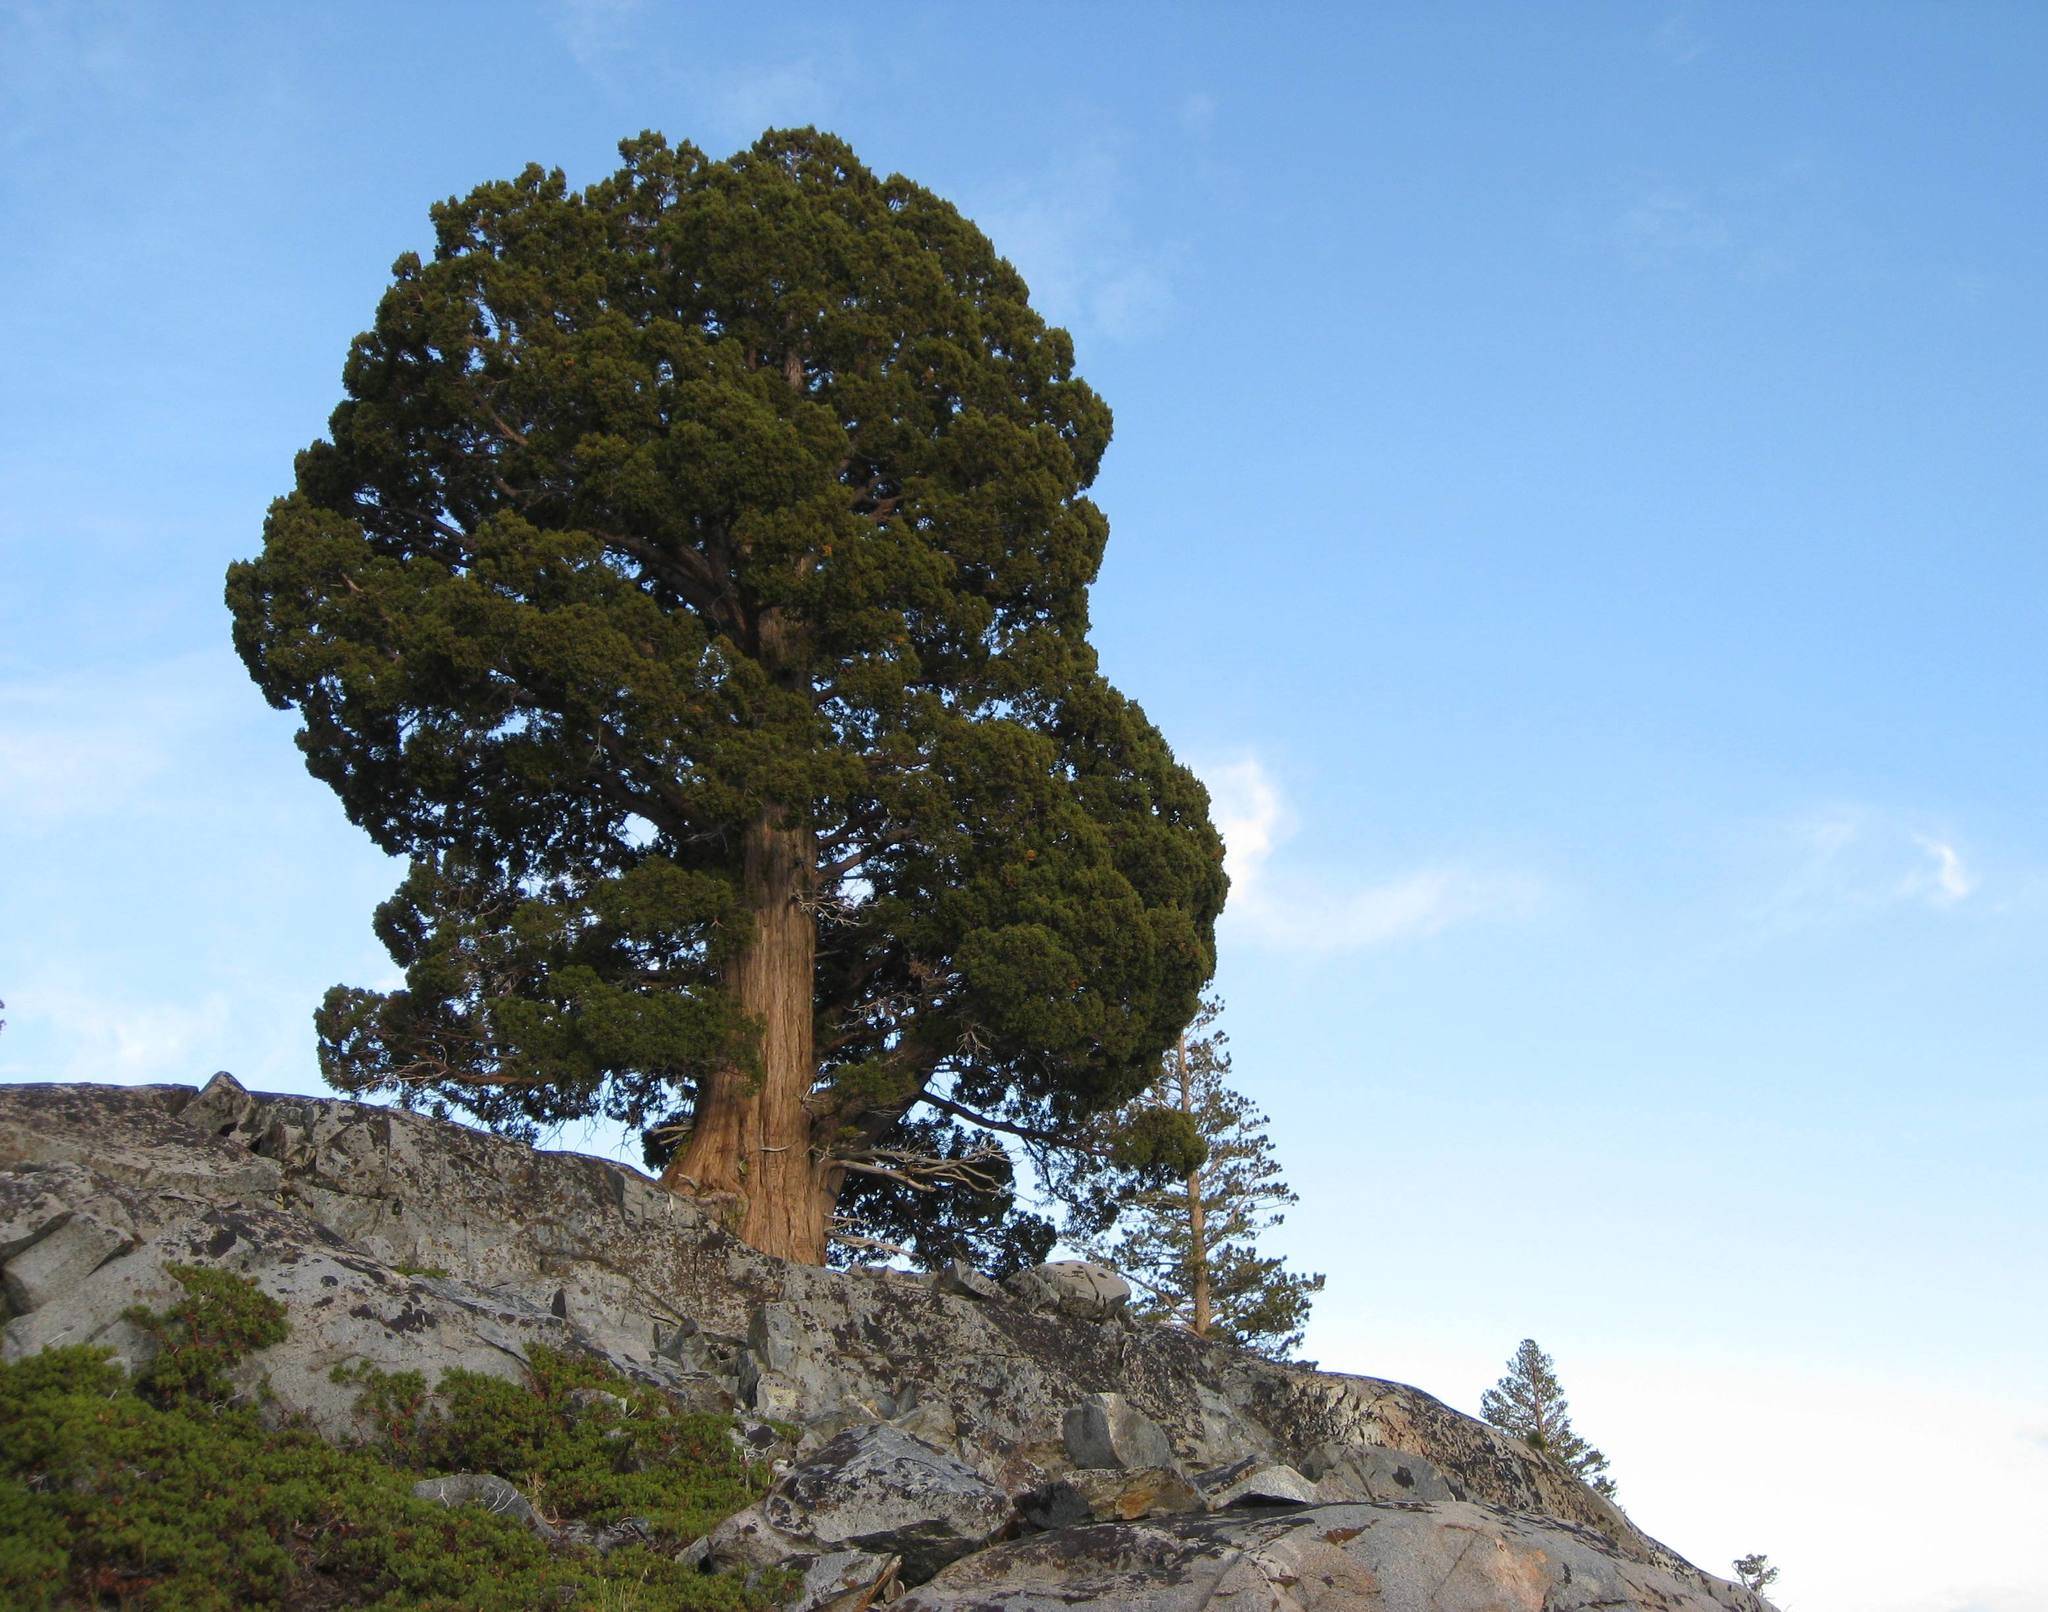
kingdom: Plantae
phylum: Tracheophyta
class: Pinopsida
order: Pinales
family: Cupressaceae
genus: Juniperus
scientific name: Juniperus occidentalis
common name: Western juniper
